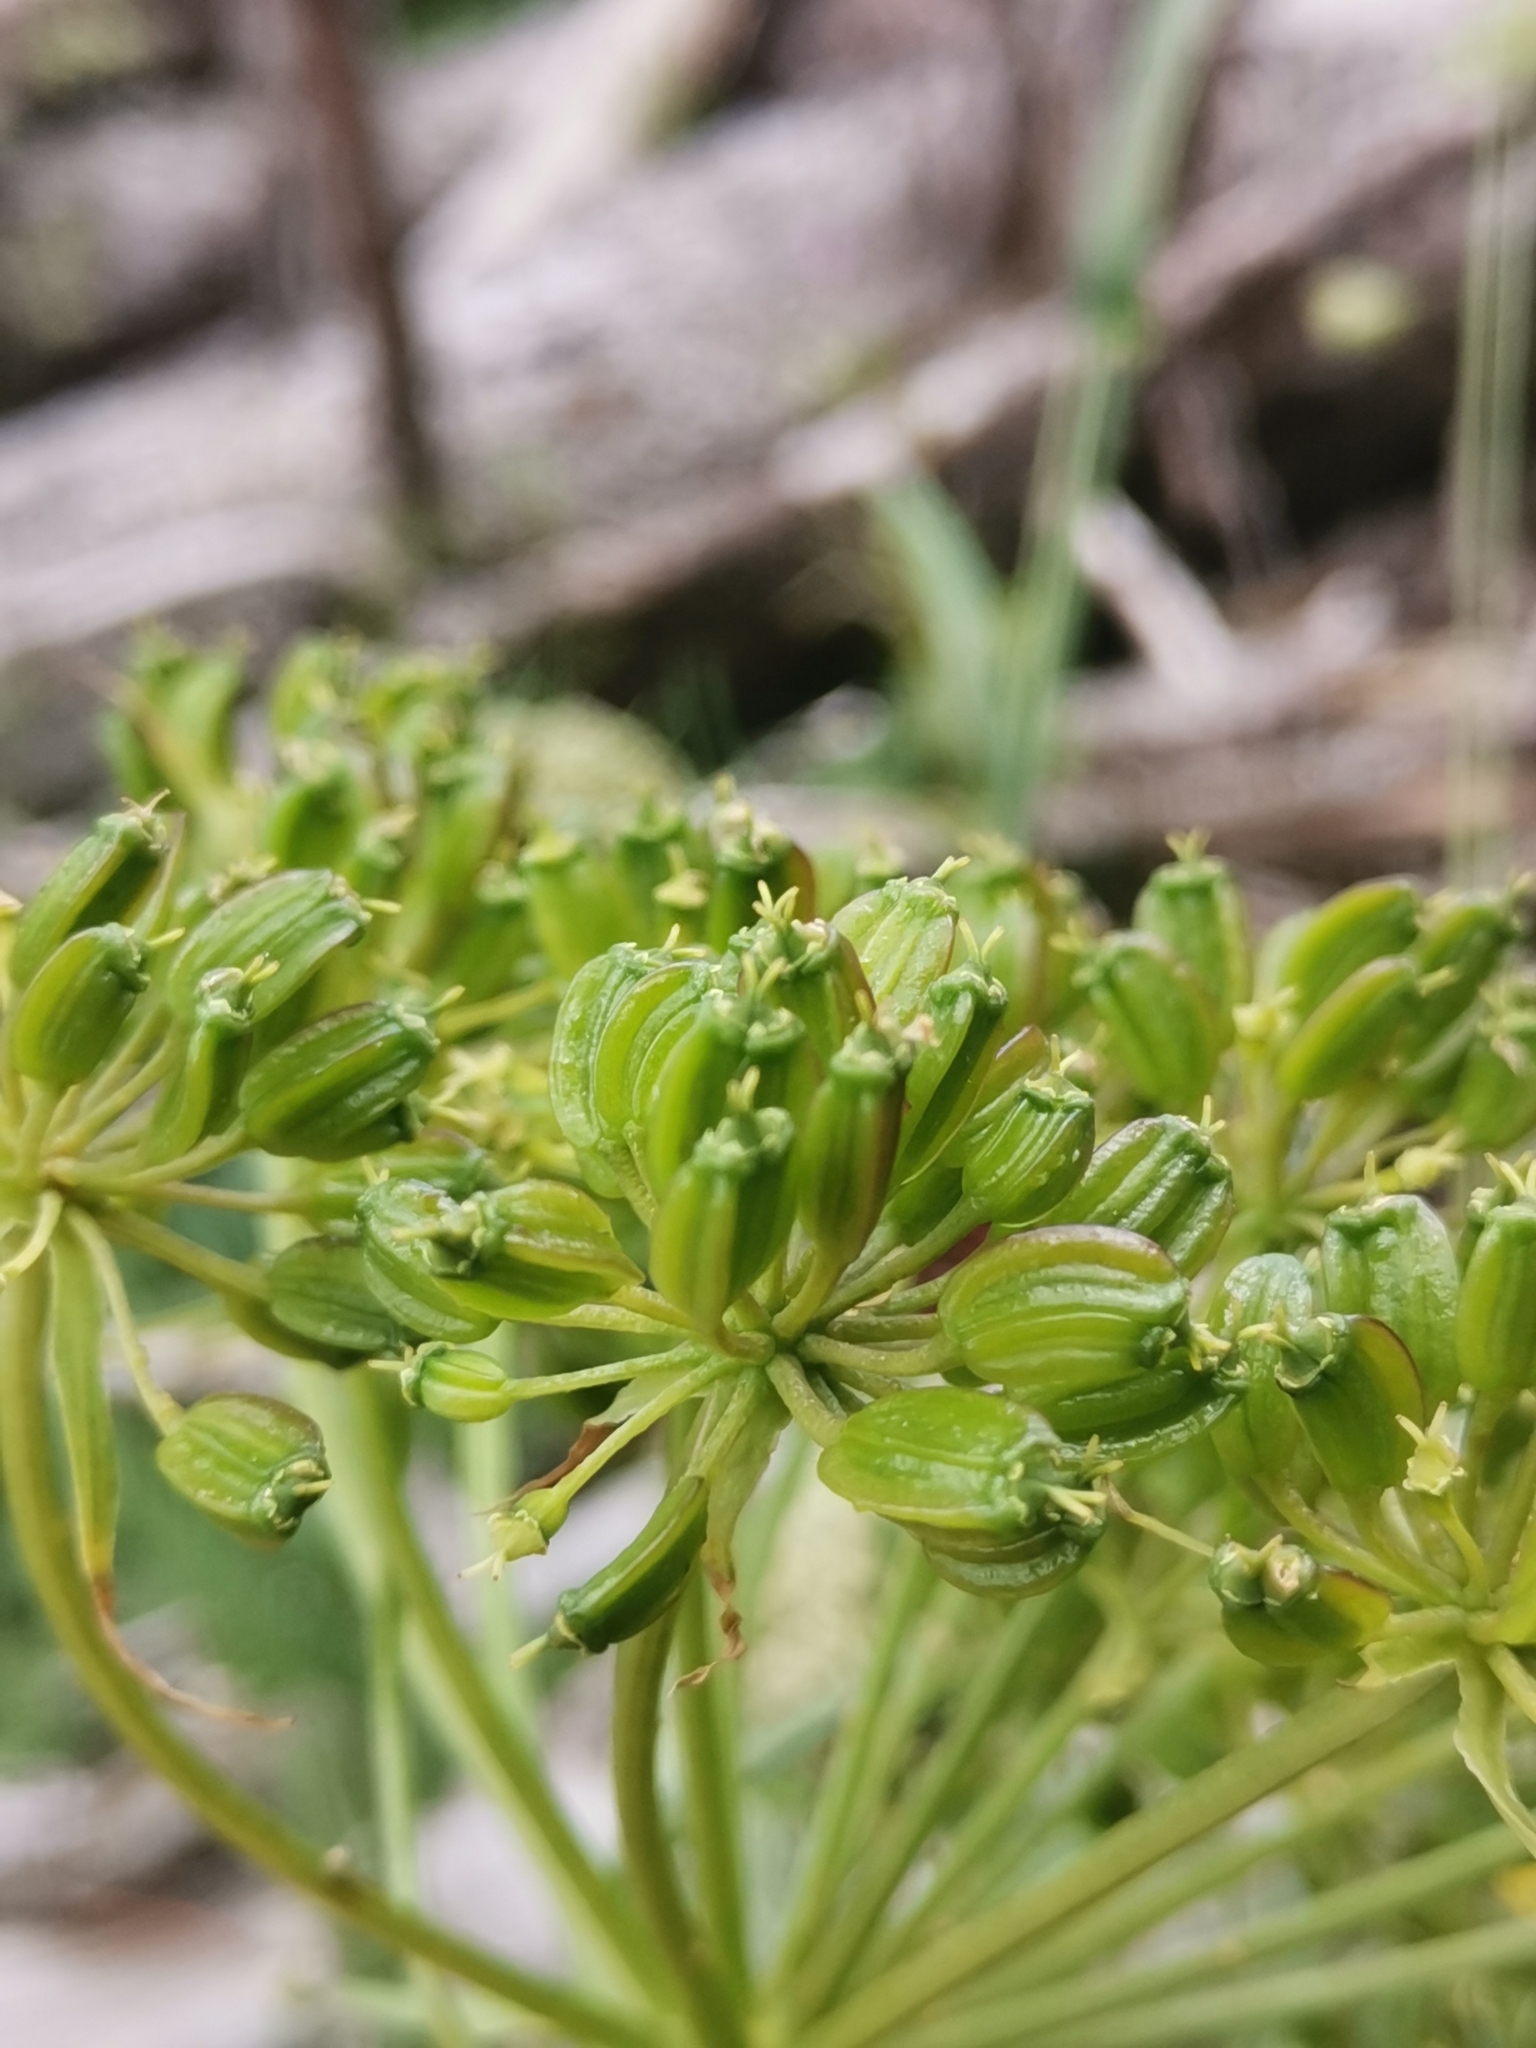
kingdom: Plantae
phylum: Tracheophyta
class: Magnoliopsida
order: Apiales
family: Apiaceae
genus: Molopospermum
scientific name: Molopospermum peloponnesiacum
